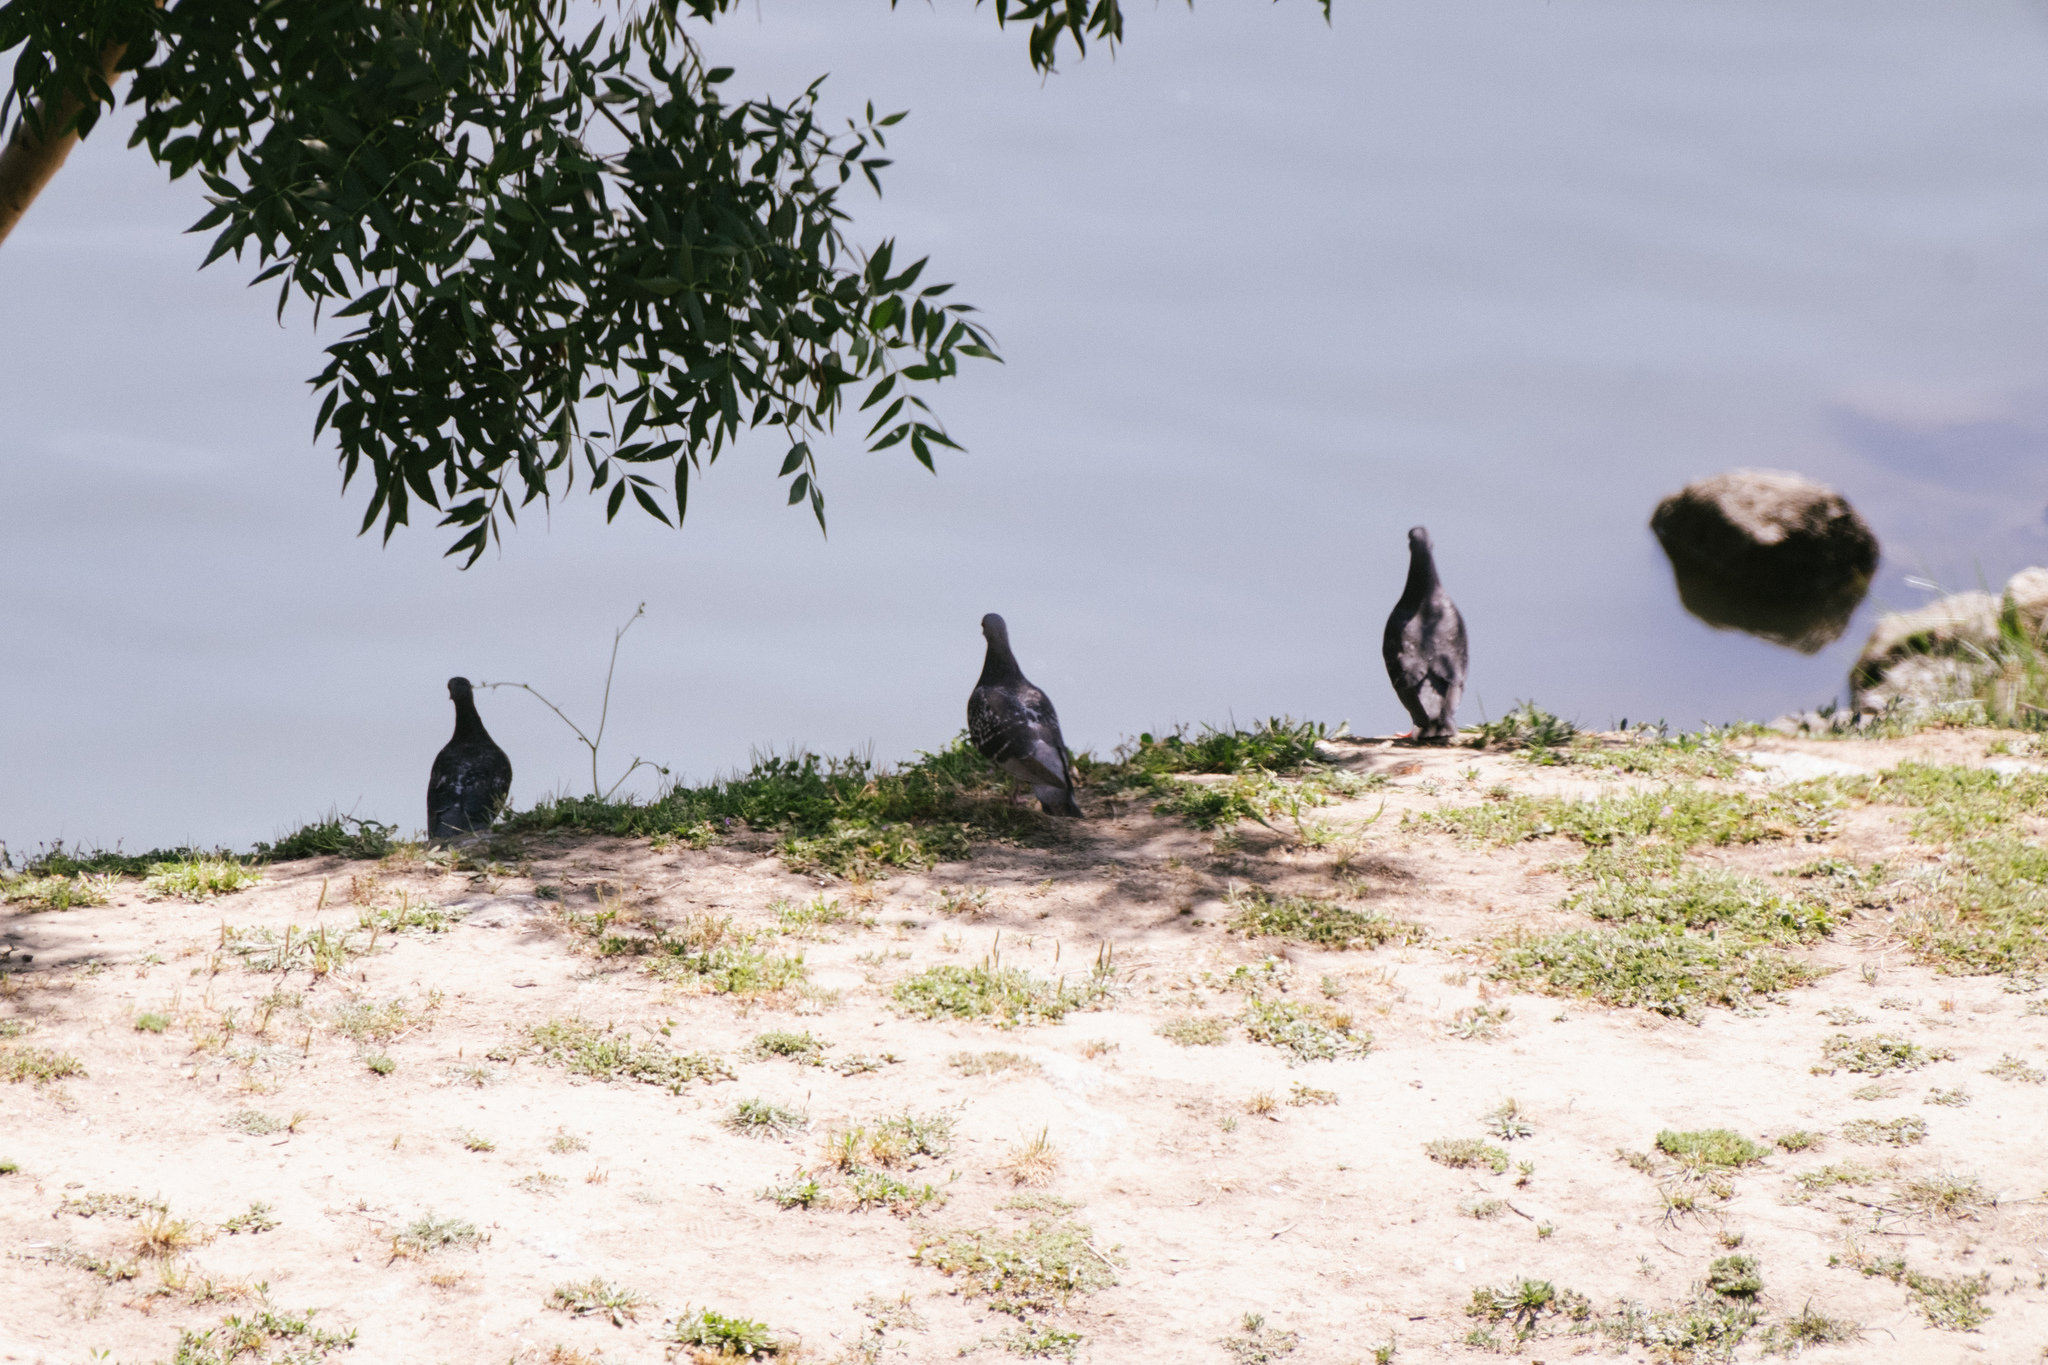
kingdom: Animalia
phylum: Chordata
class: Aves
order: Columbiformes
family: Columbidae
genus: Columba
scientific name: Columba livia
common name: Rock pigeon
